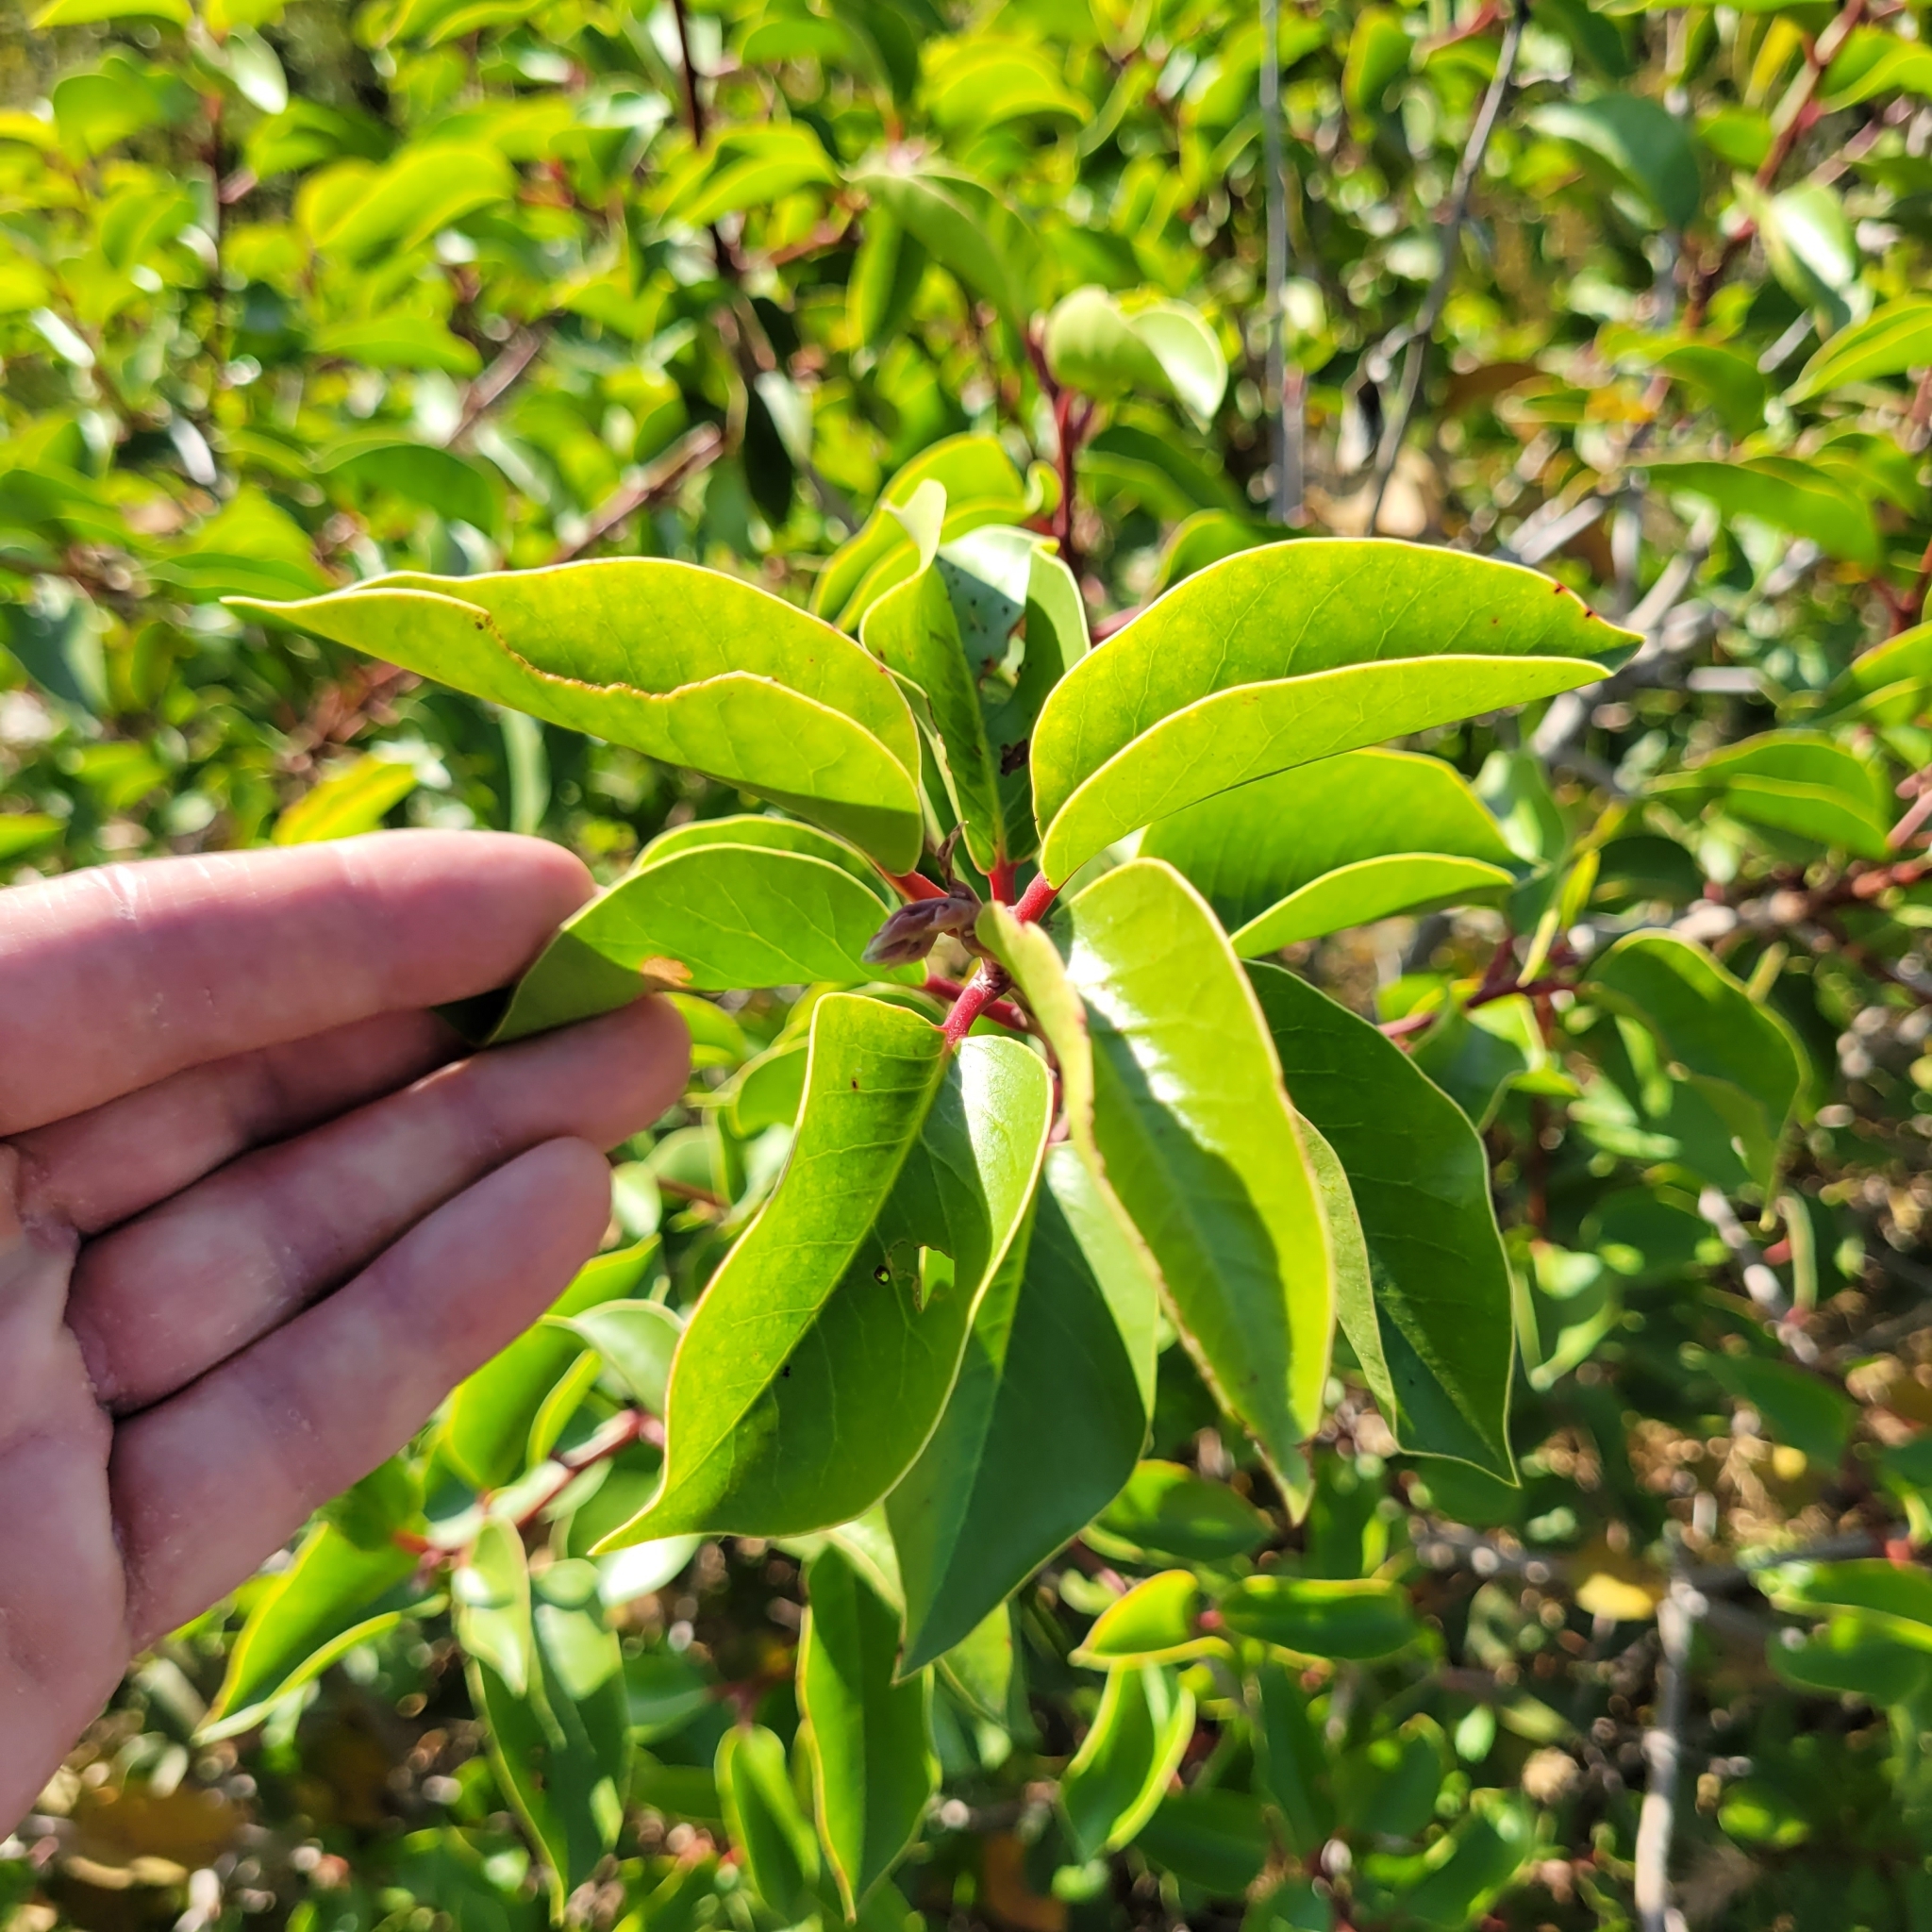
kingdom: Plantae
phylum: Tracheophyta
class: Magnoliopsida
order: Sapindales
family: Anacardiaceae
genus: Rhus
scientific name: Rhus ovata
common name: Sugar sumac
